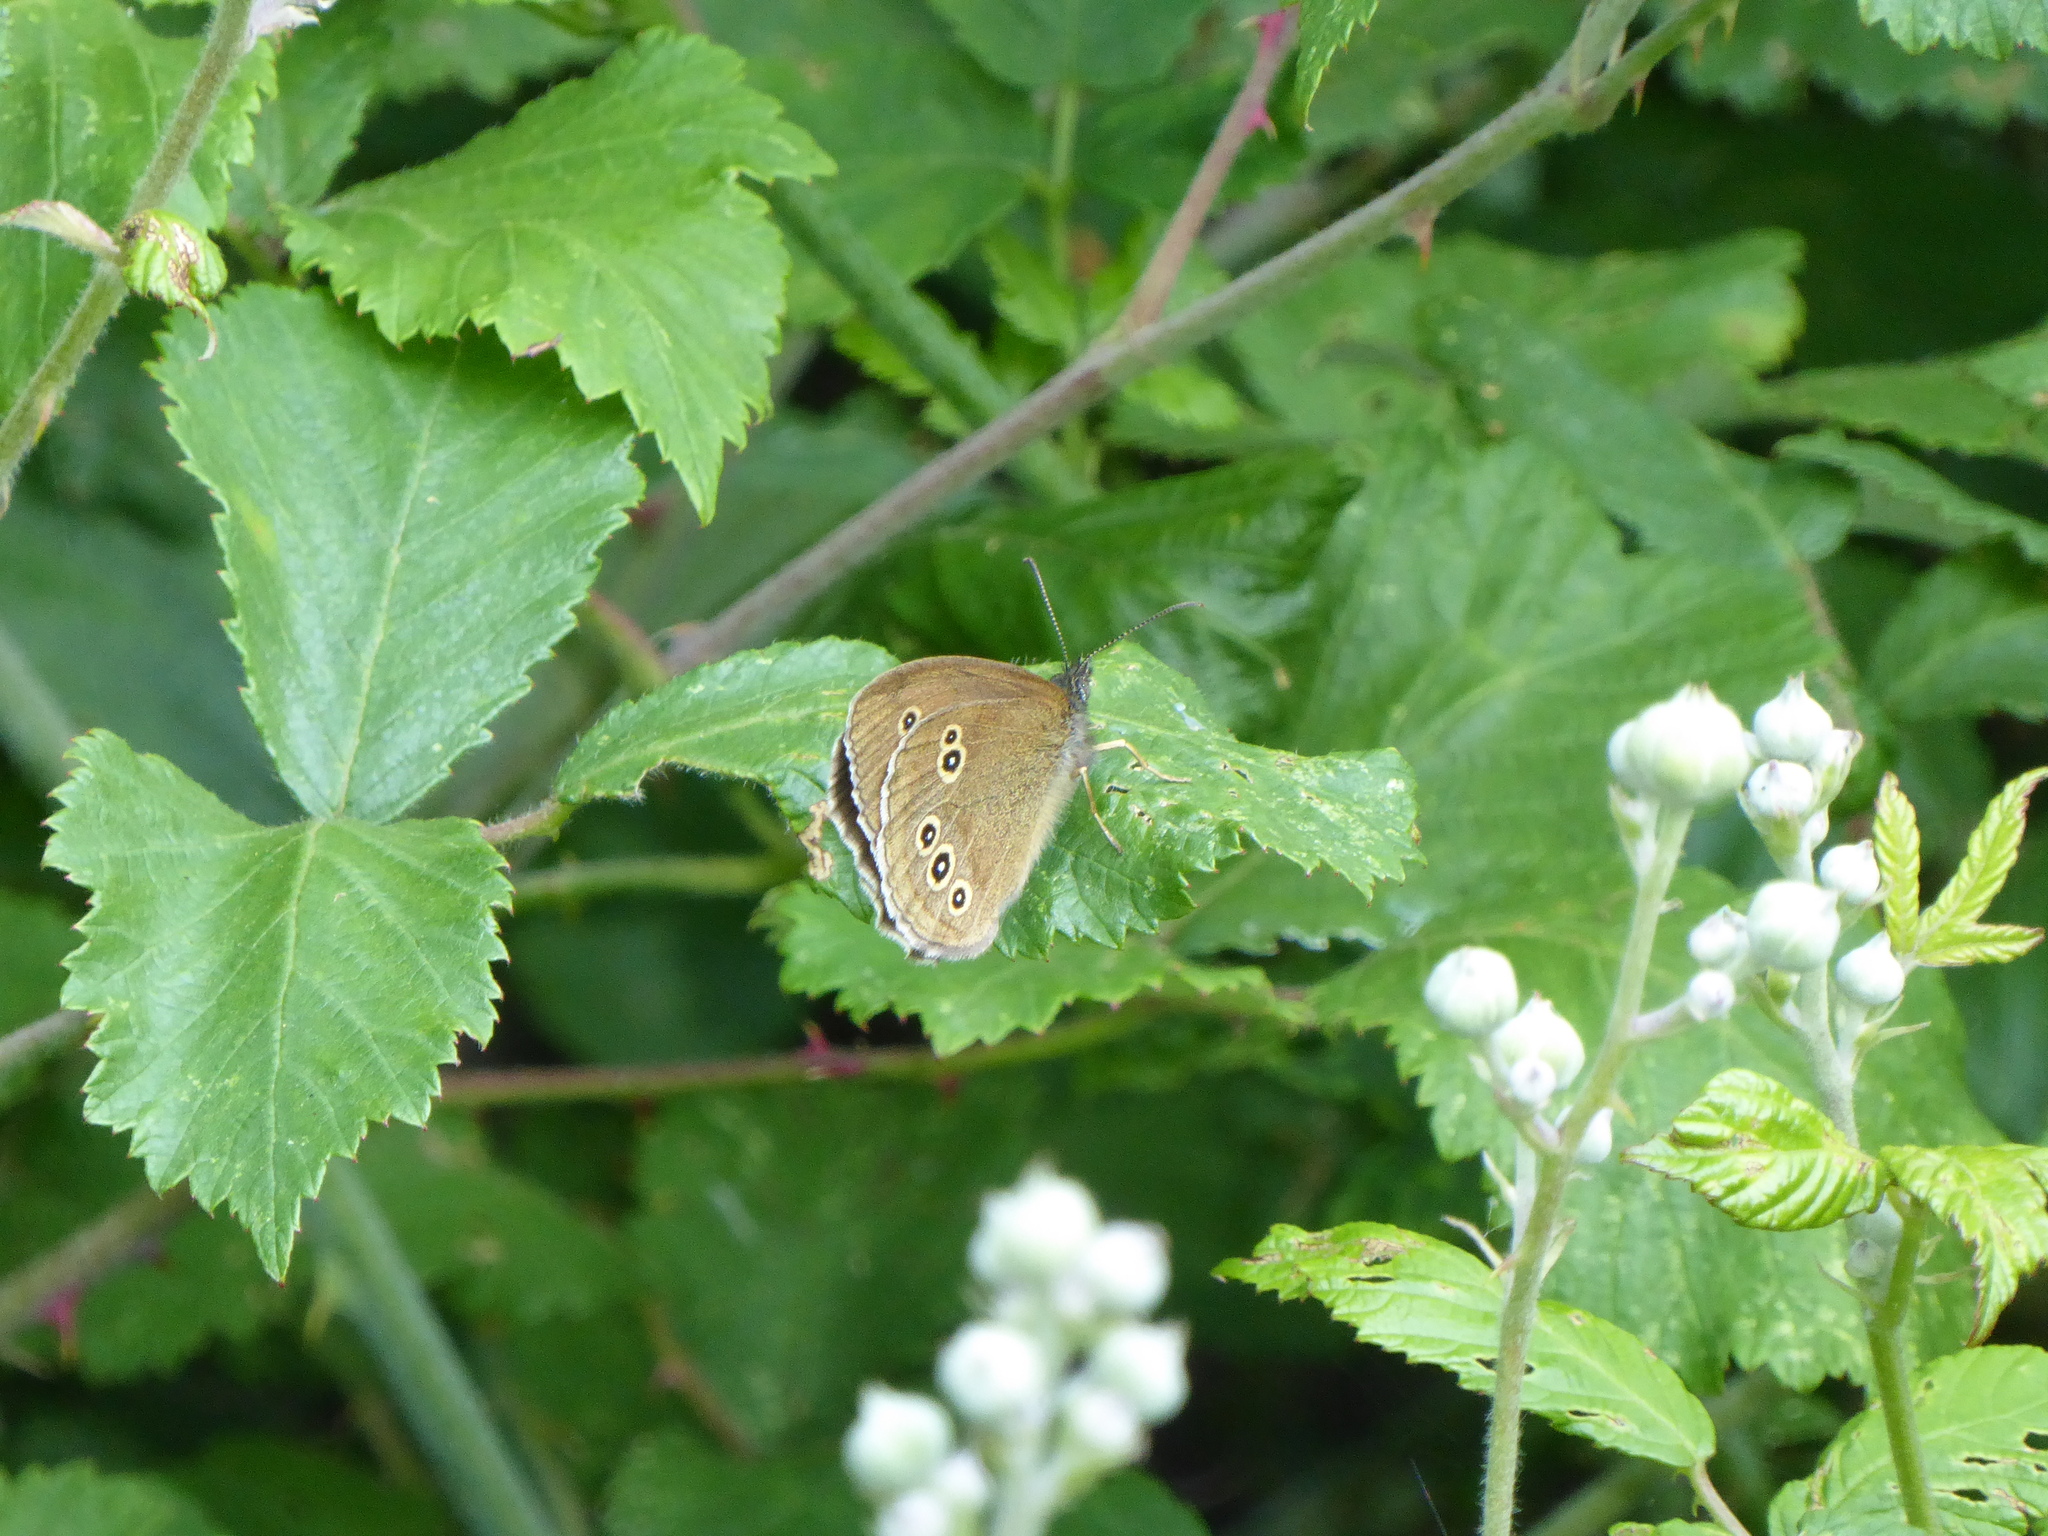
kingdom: Animalia
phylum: Arthropoda
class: Insecta
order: Lepidoptera
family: Nymphalidae
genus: Aphantopus
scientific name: Aphantopus hyperantus
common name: Ringlet
